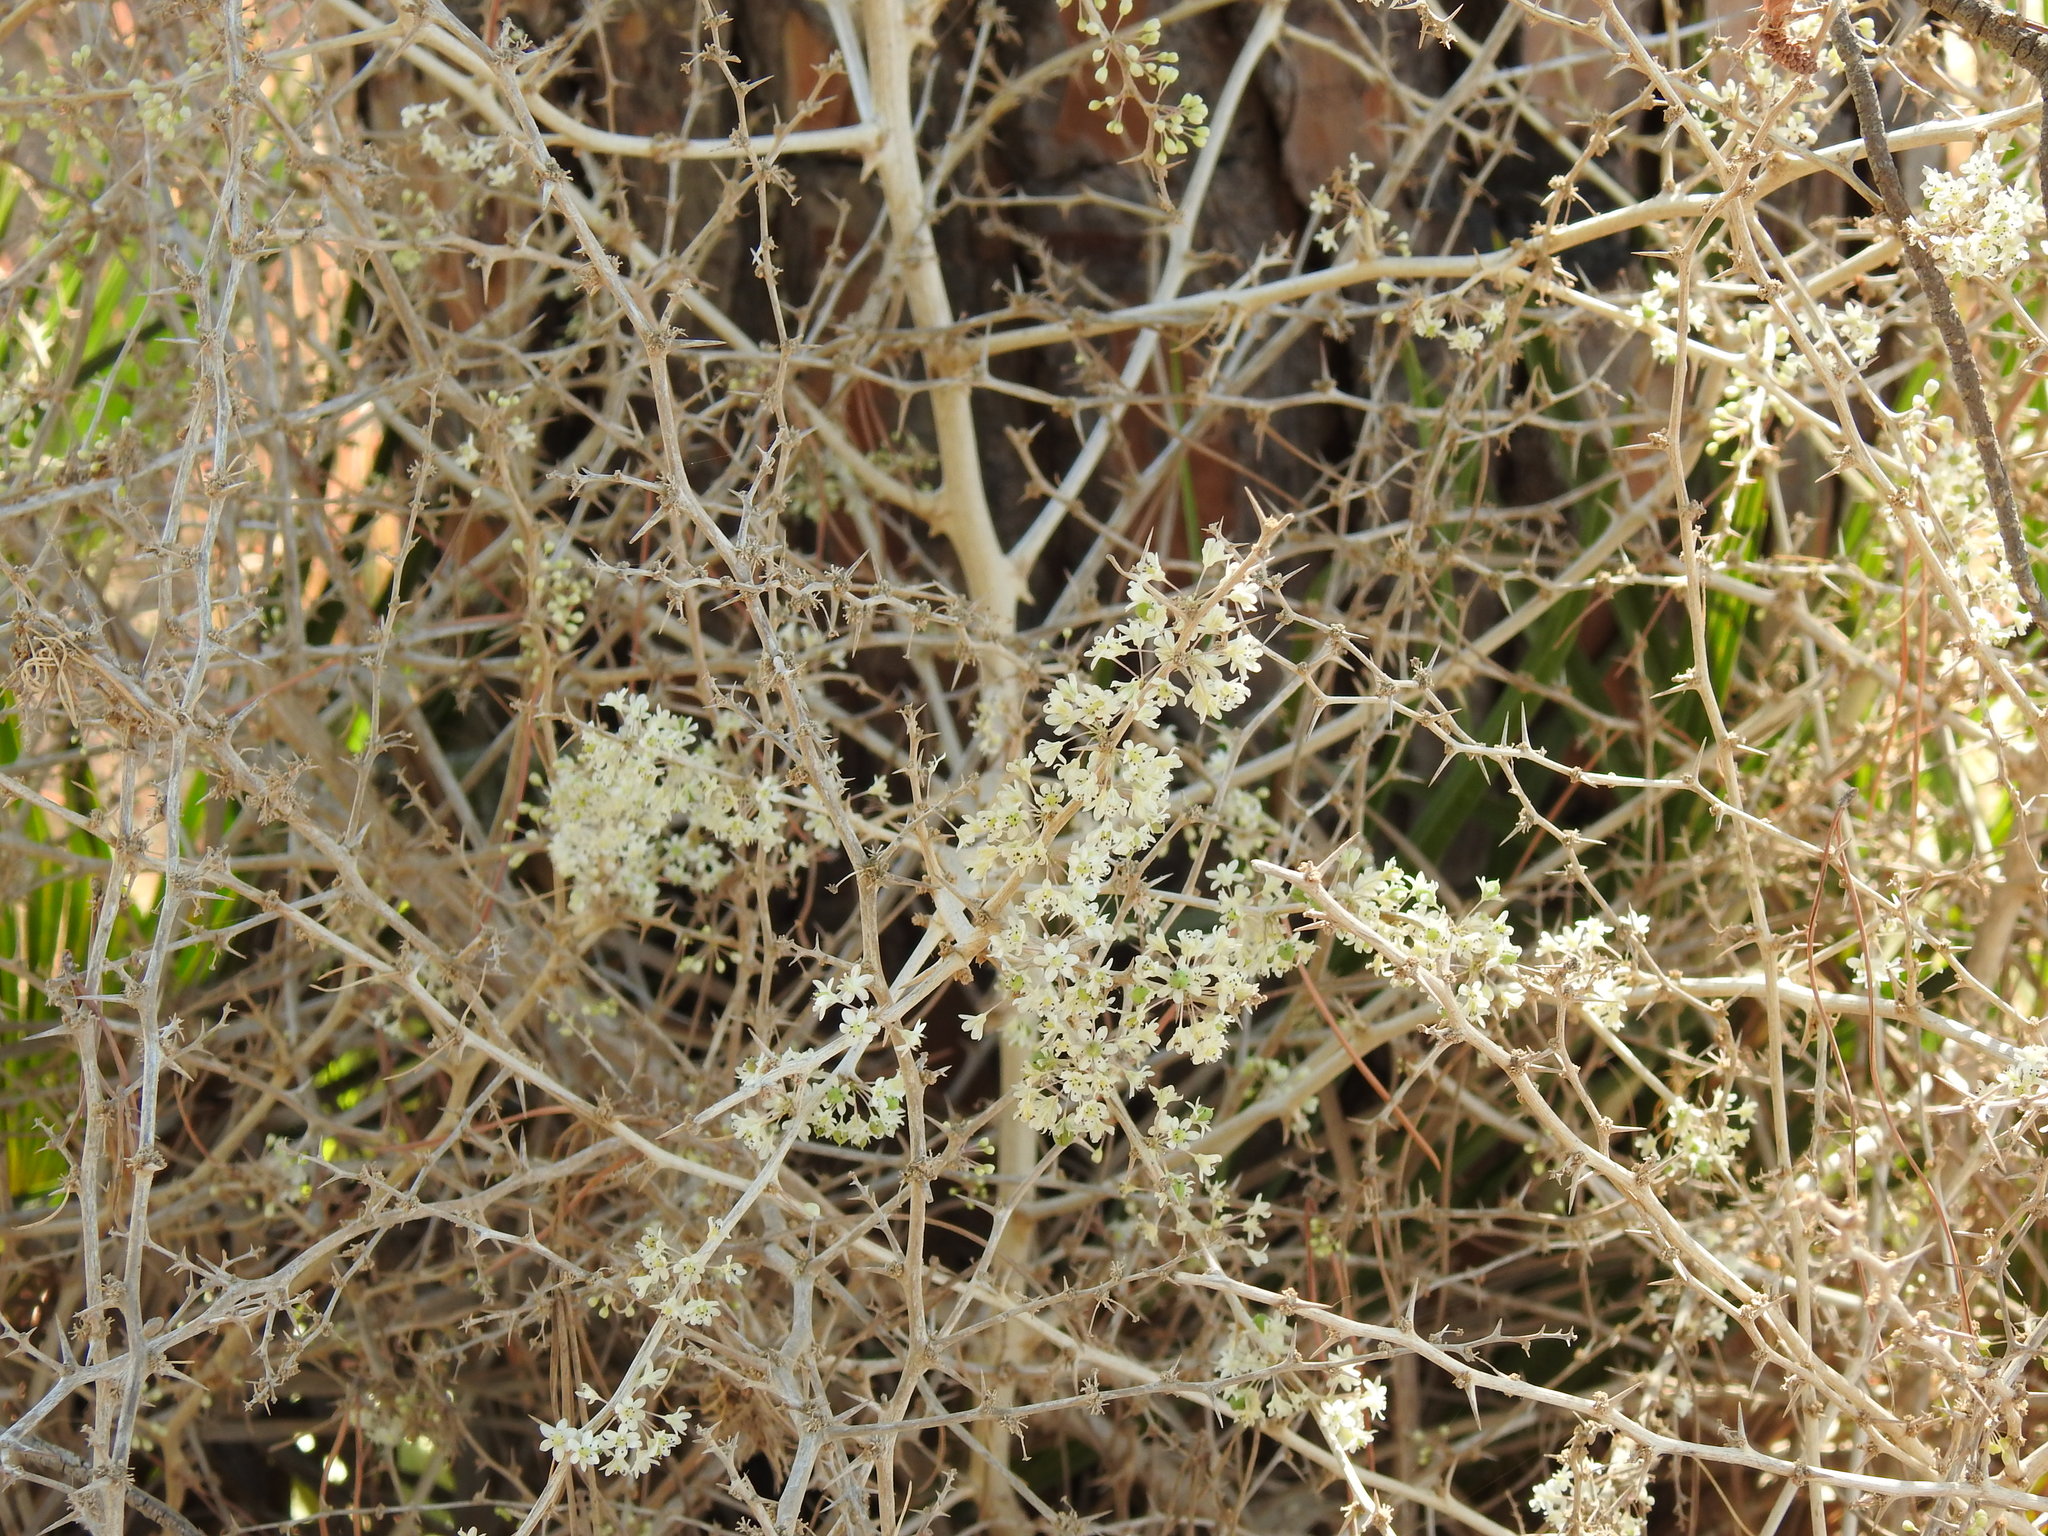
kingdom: Plantae
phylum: Tracheophyta
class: Liliopsida
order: Asparagales
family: Asparagaceae
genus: Asparagus
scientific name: Asparagus albus
